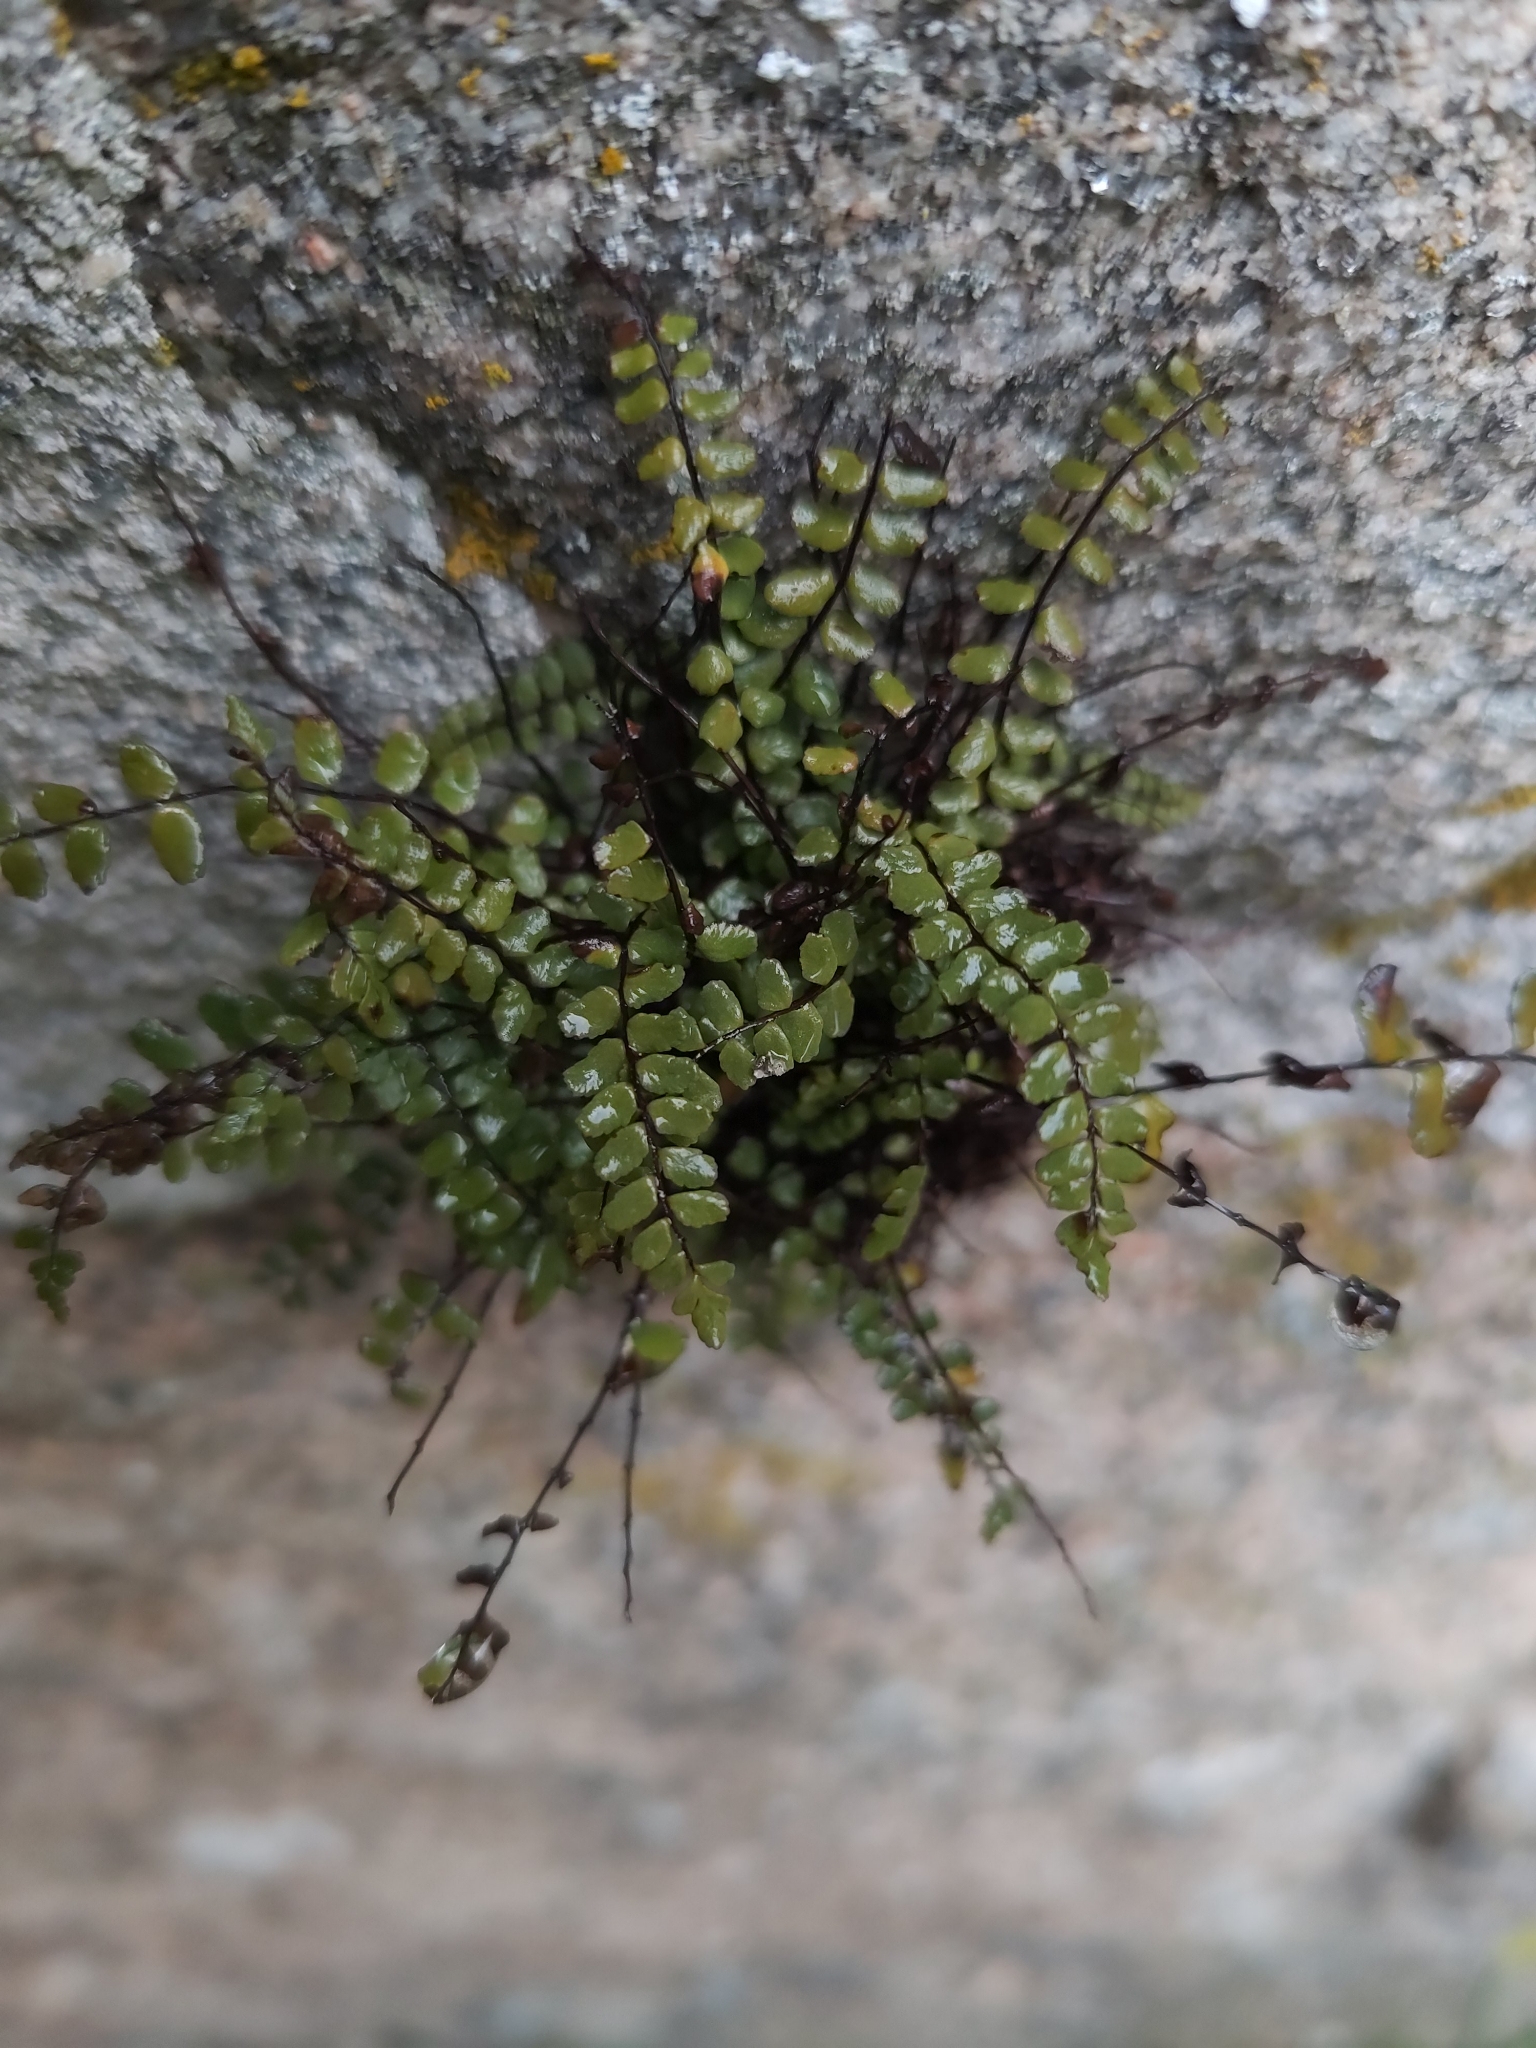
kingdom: Plantae
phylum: Tracheophyta
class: Polypodiopsida
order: Polypodiales
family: Aspleniaceae
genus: Asplenium
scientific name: Asplenium trichomanes
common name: Maidenhair spleenwort
